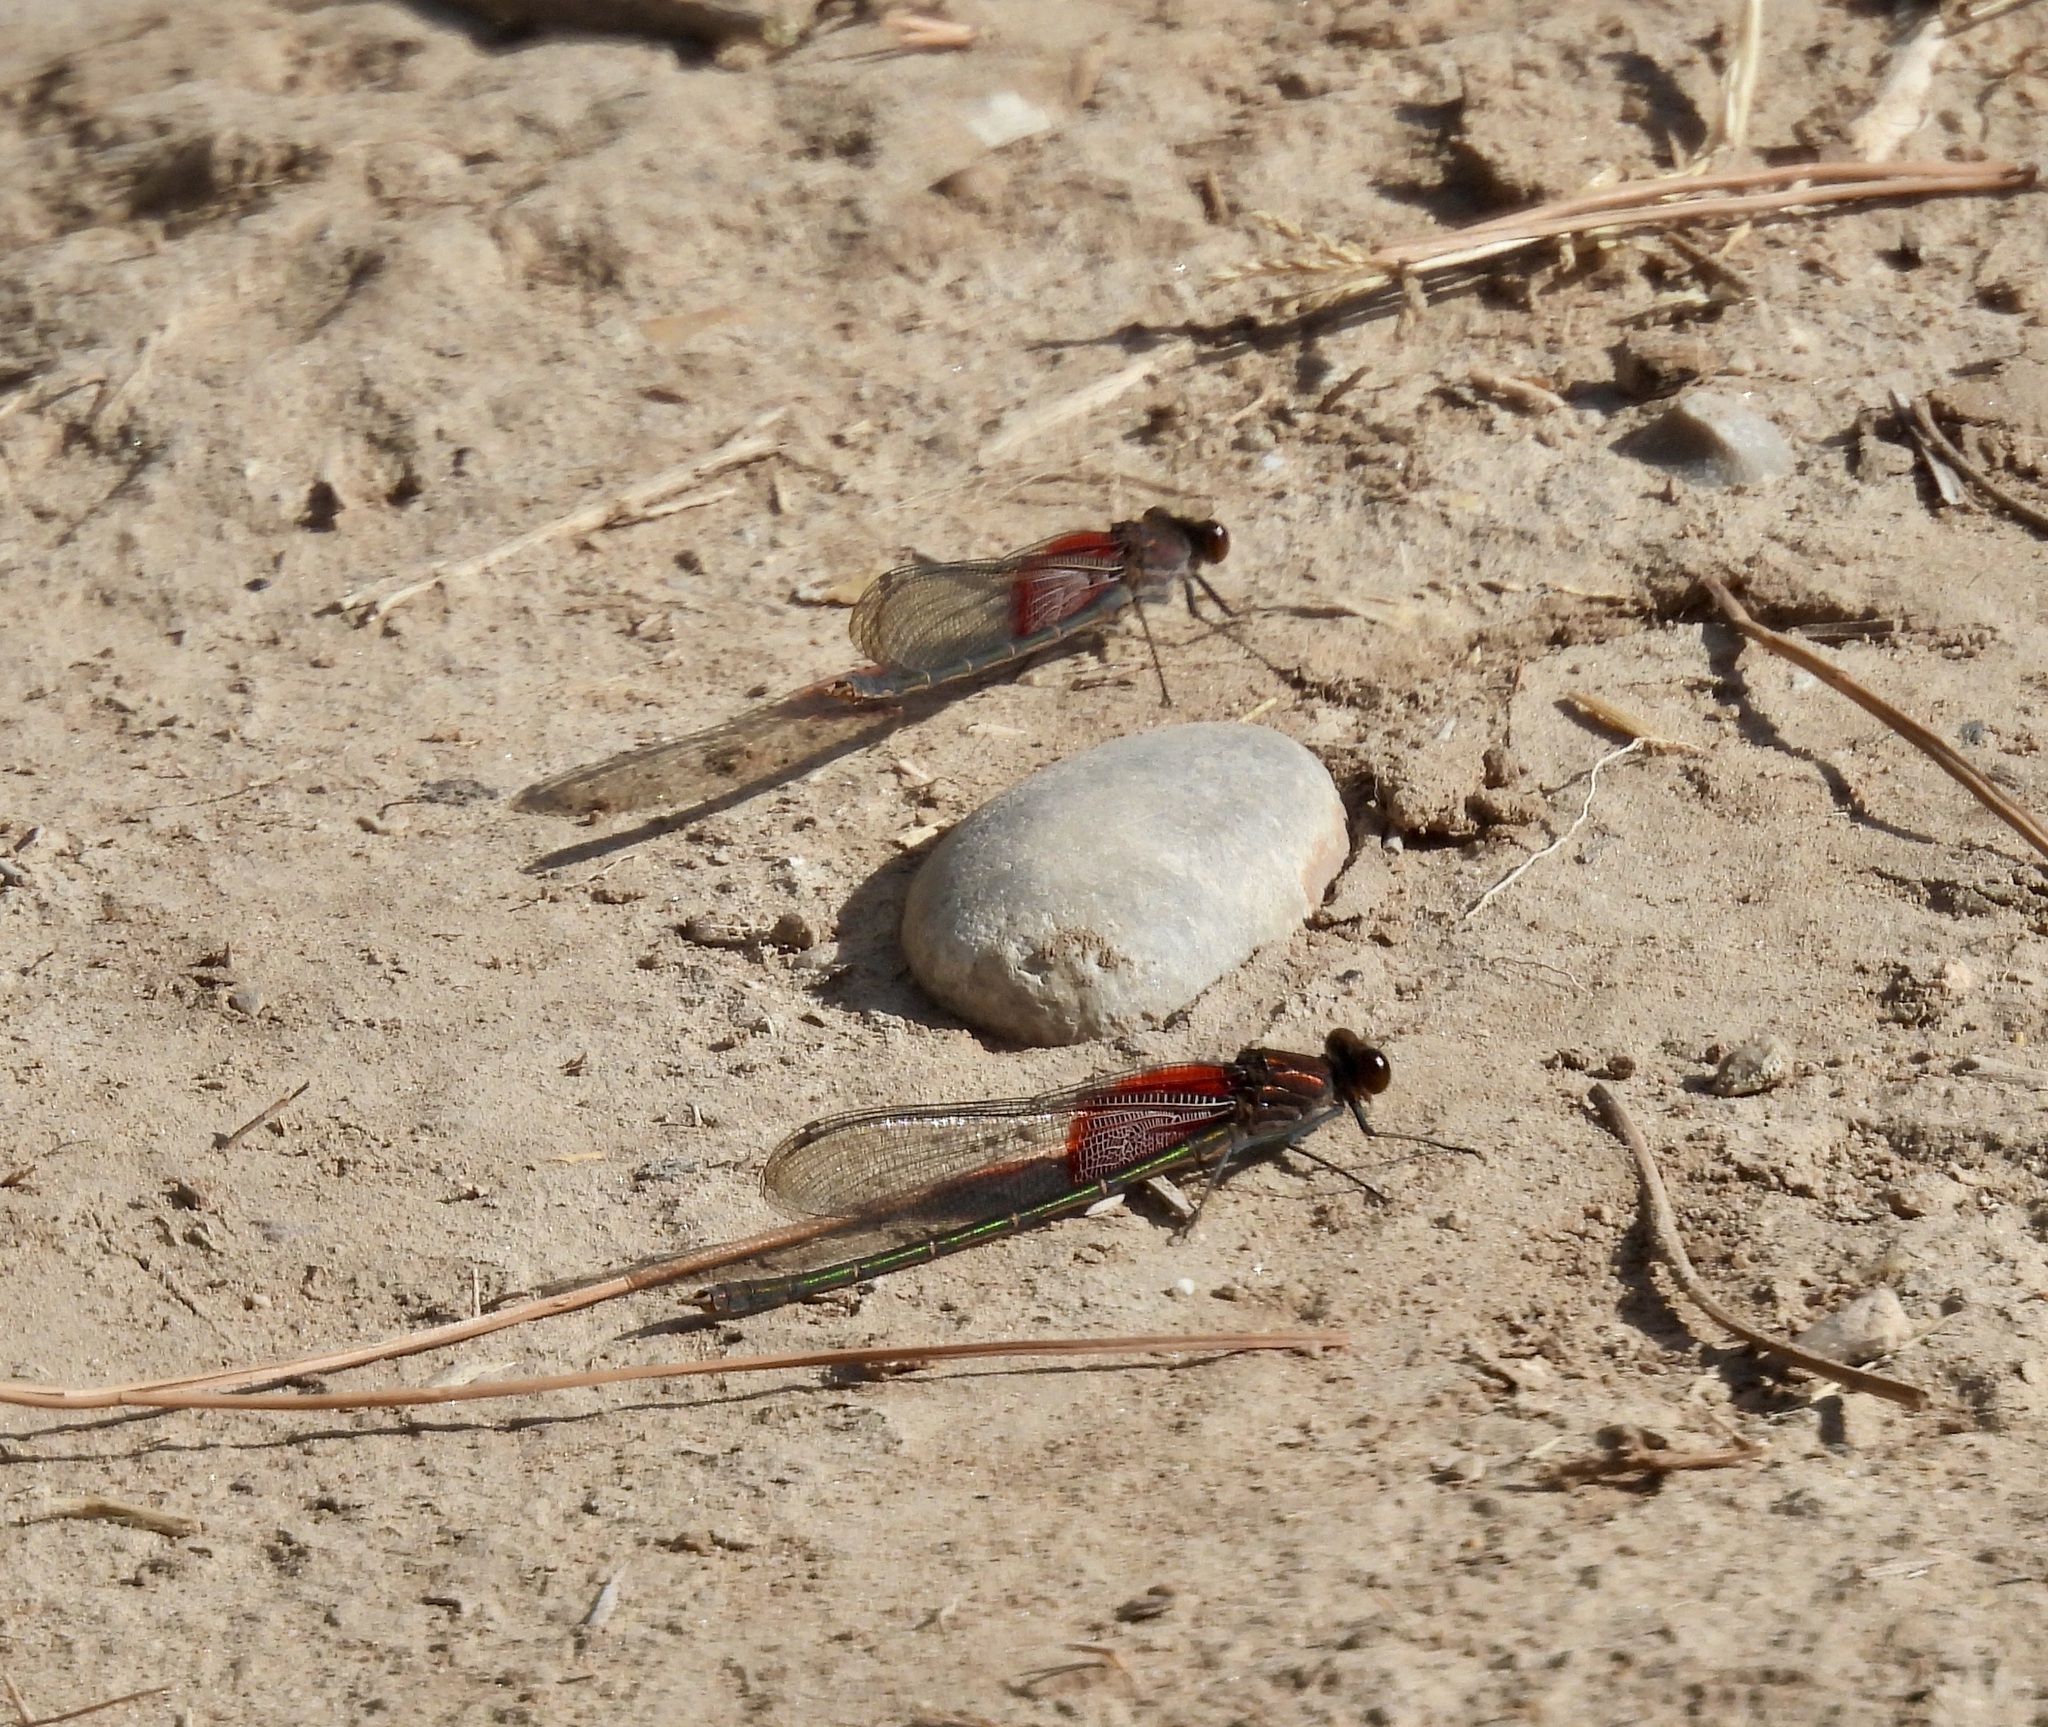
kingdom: Animalia
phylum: Arthropoda
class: Insecta
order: Odonata
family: Calopterygidae
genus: Hetaerina
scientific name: Hetaerina americana
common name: American rubyspot
